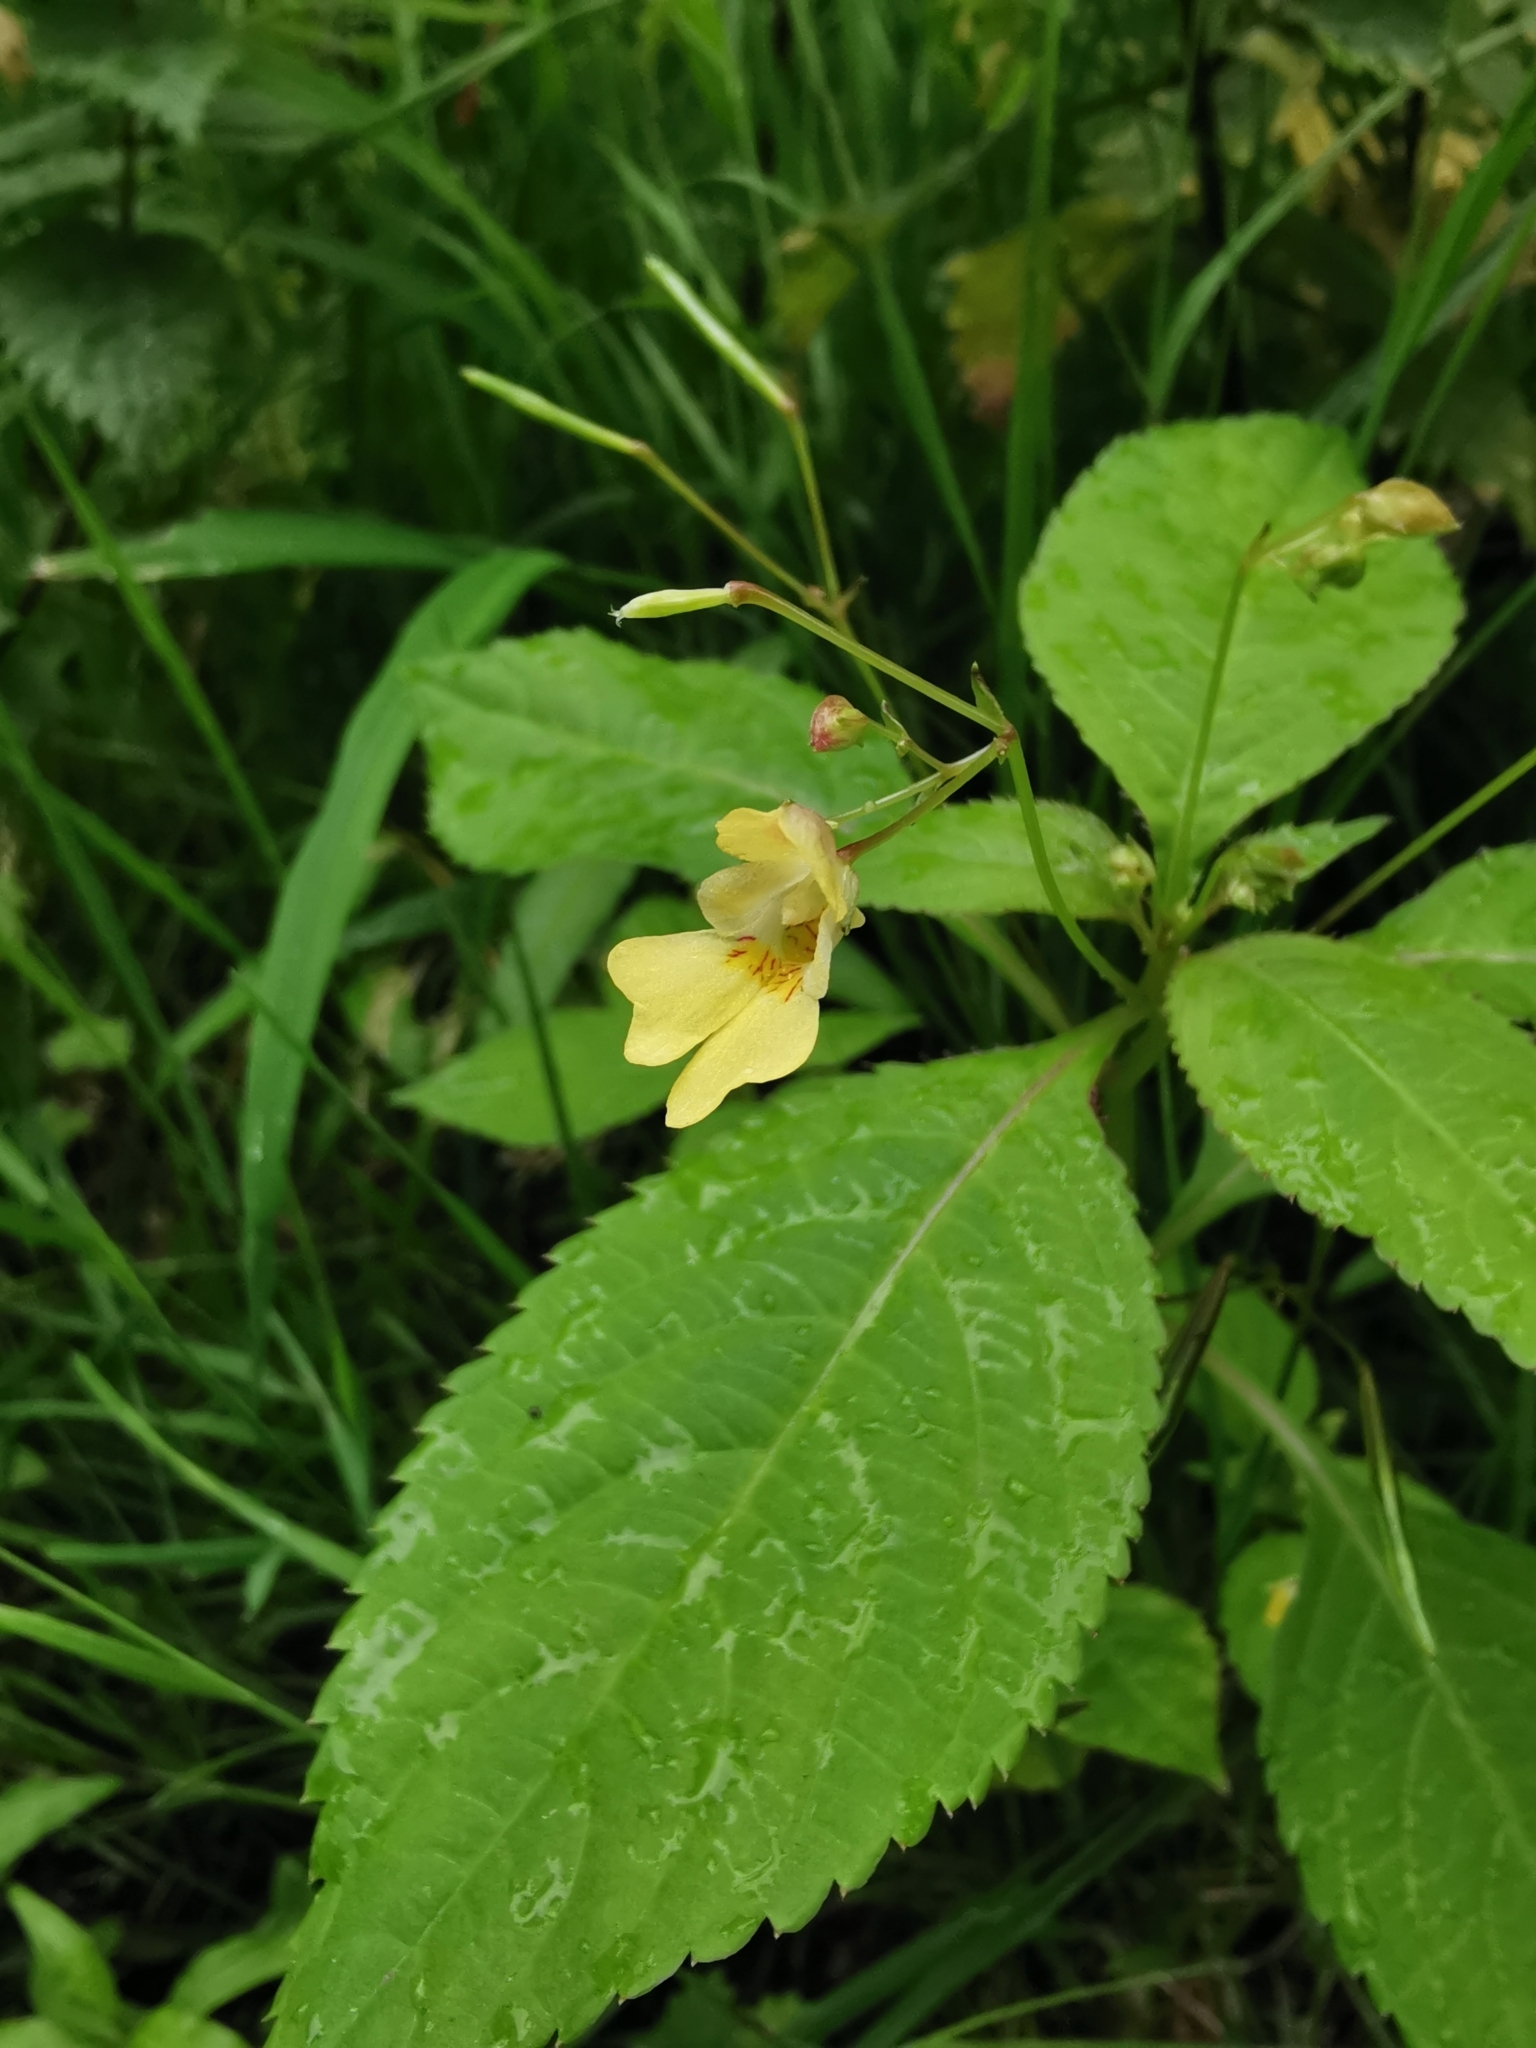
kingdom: Plantae
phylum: Tracheophyta
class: Magnoliopsida
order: Ericales
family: Balsaminaceae
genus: Impatiens
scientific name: Impatiens parviflora
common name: Small balsam
